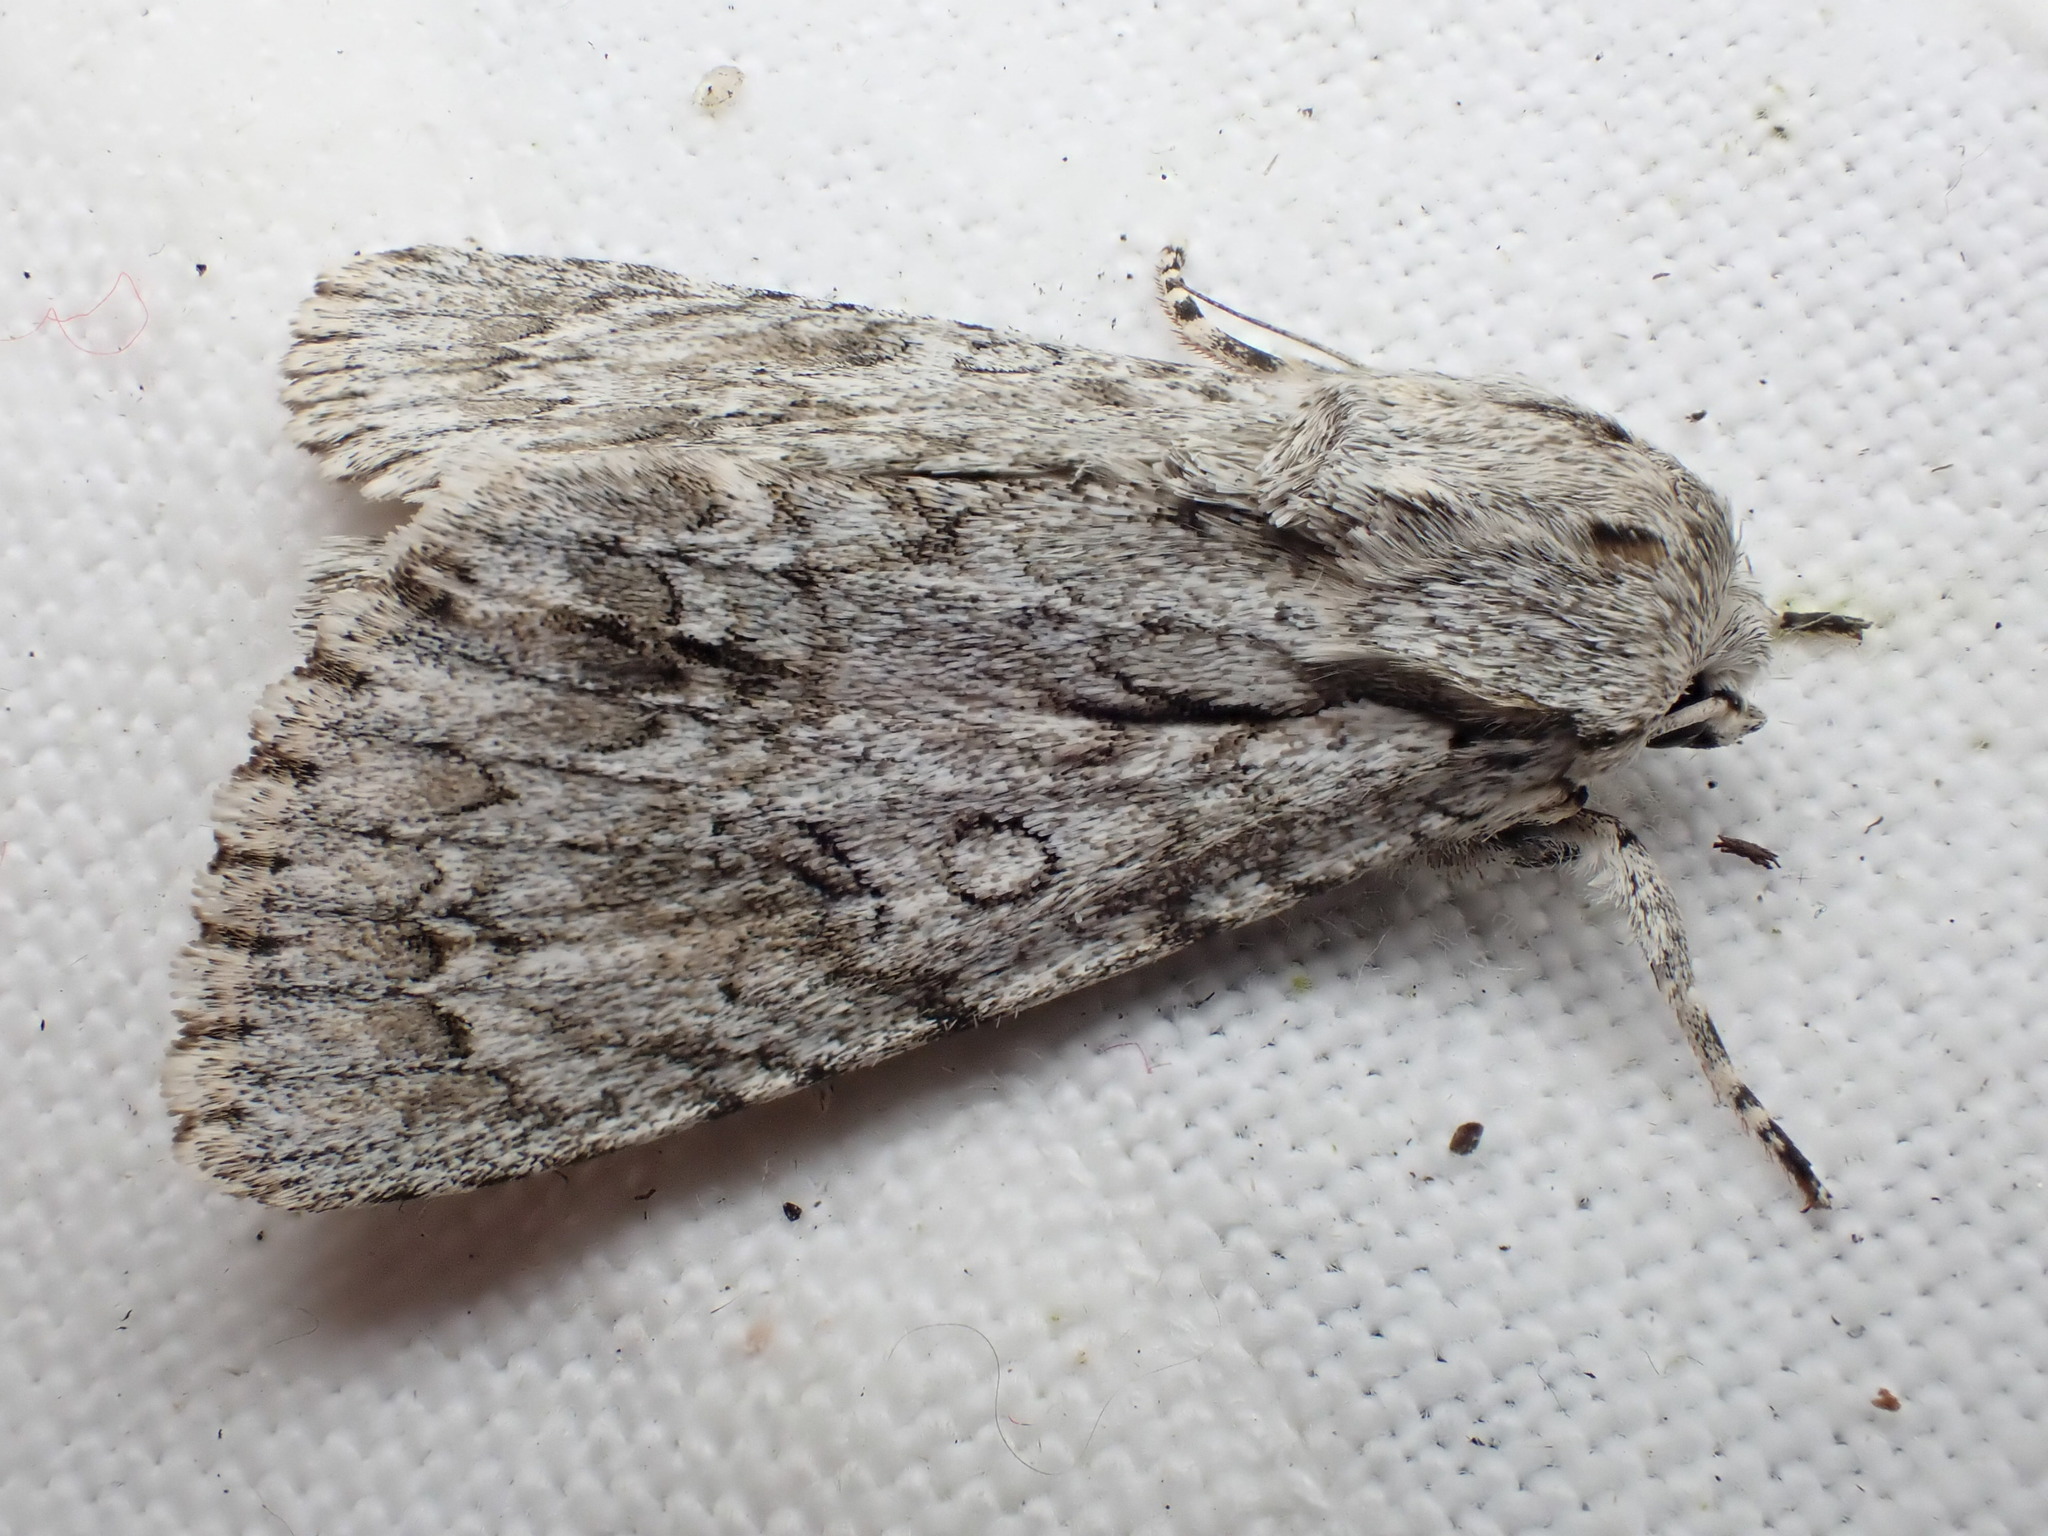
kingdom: Animalia
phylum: Arthropoda
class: Insecta
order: Lepidoptera
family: Noctuidae
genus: Acronicta
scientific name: Acronicta aceris
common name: Sycamore
